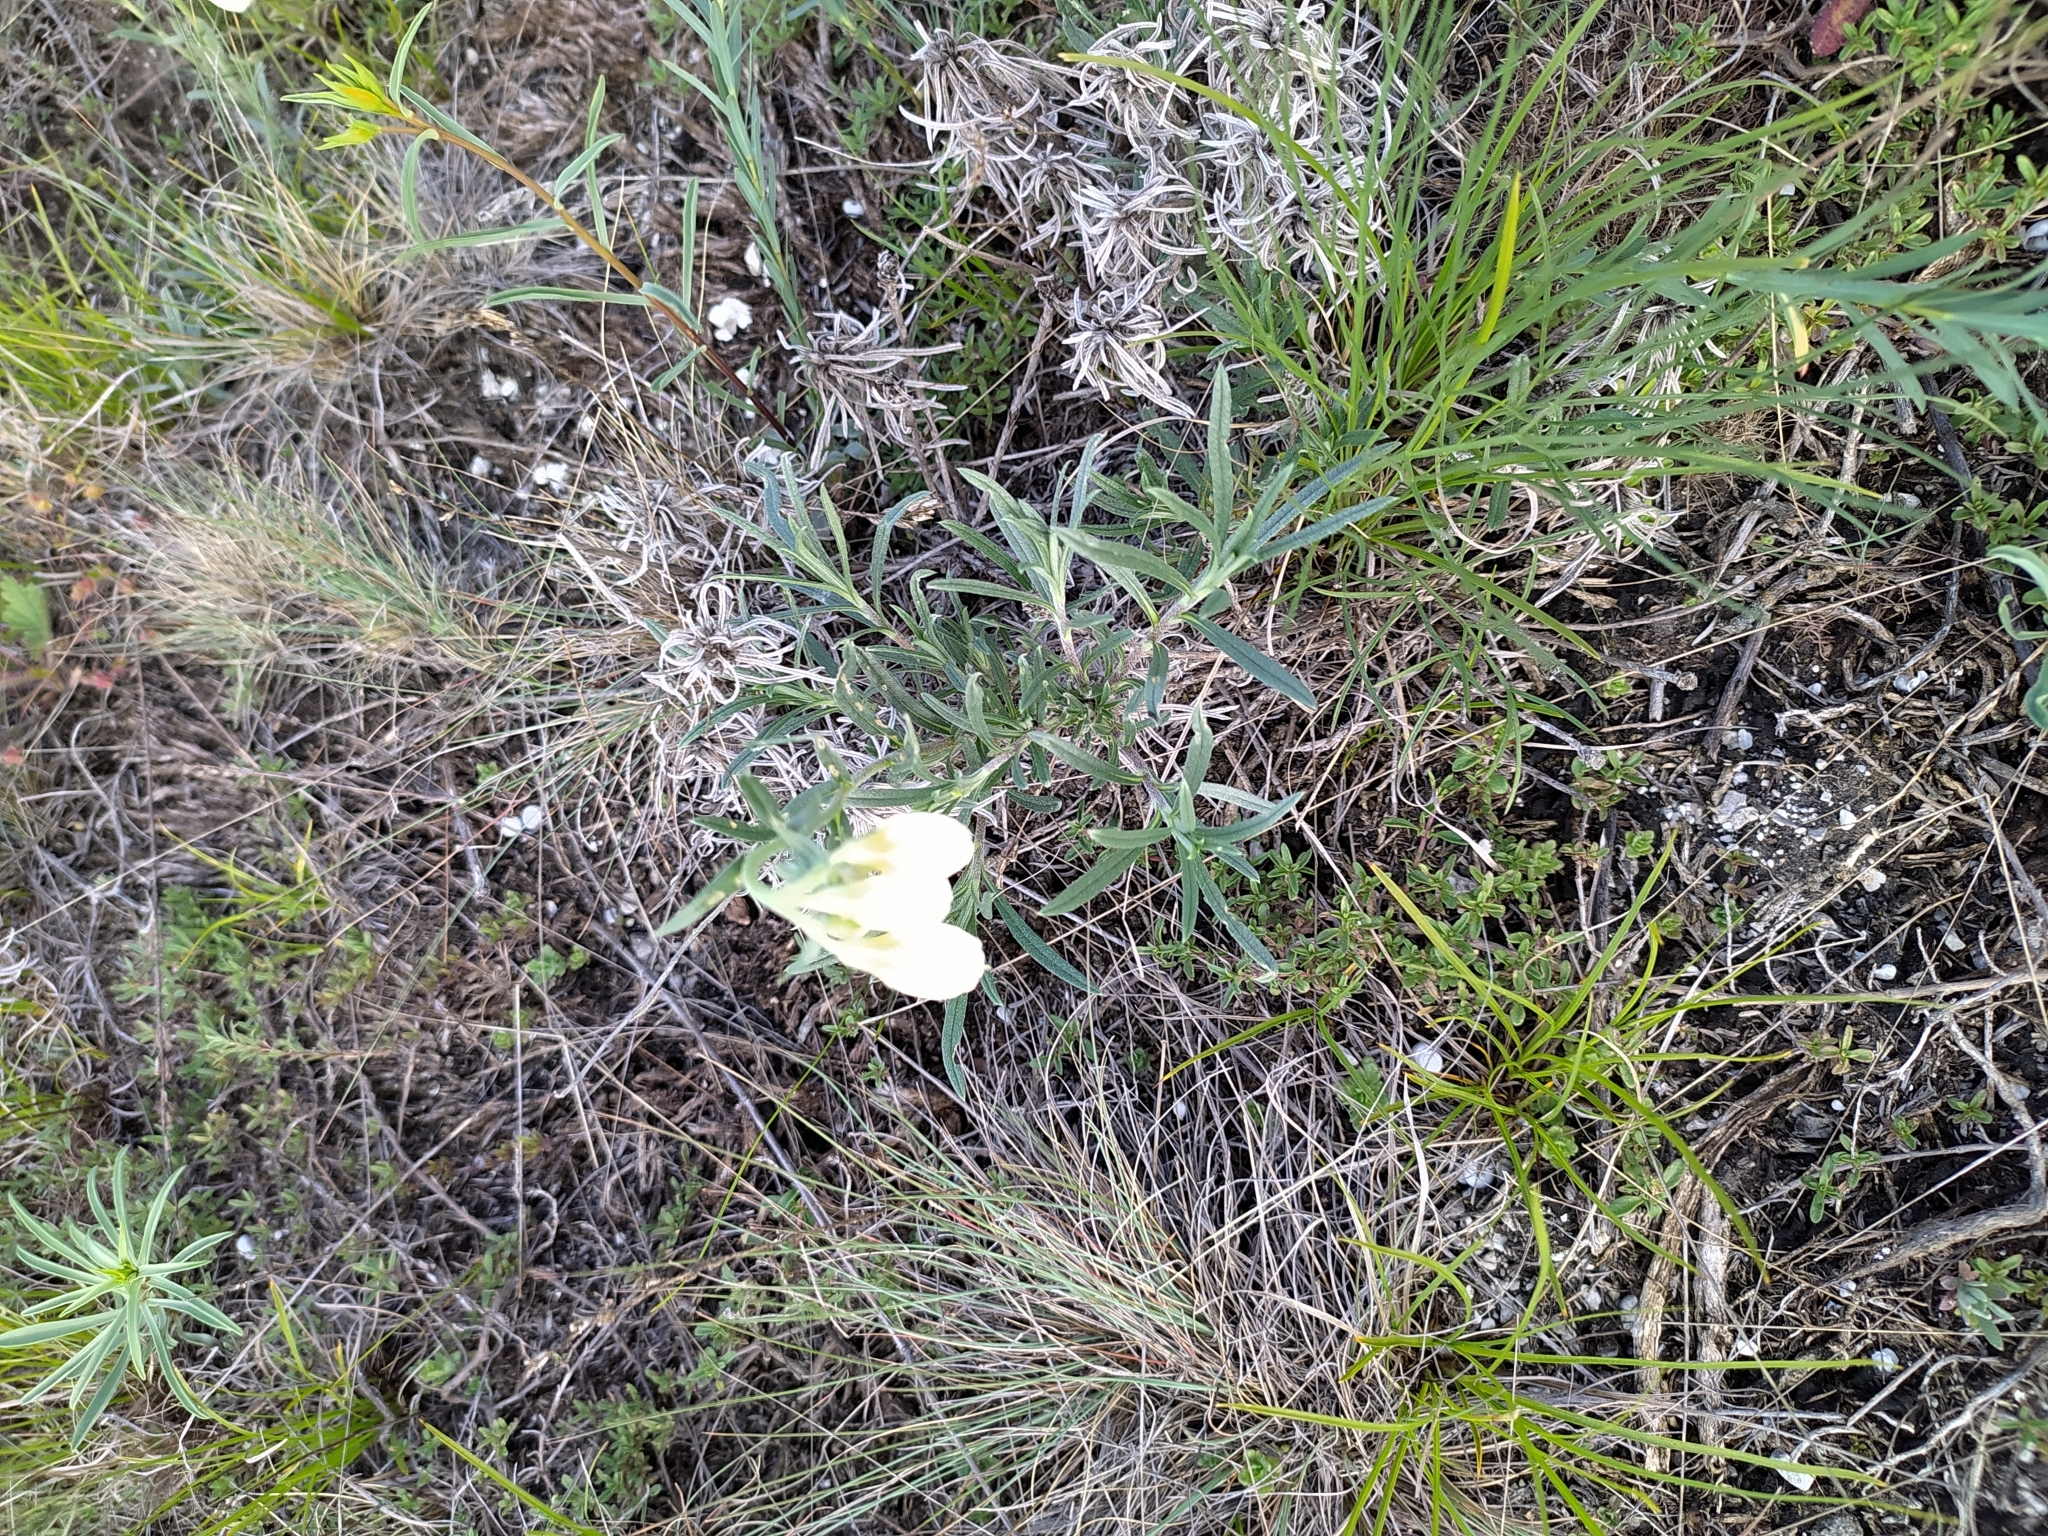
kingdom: Plantae
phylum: Tracheophyta
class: Magnoliopsida
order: Boraginales
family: Boraginaceae
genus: Onosma
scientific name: Onosma simplicissima
